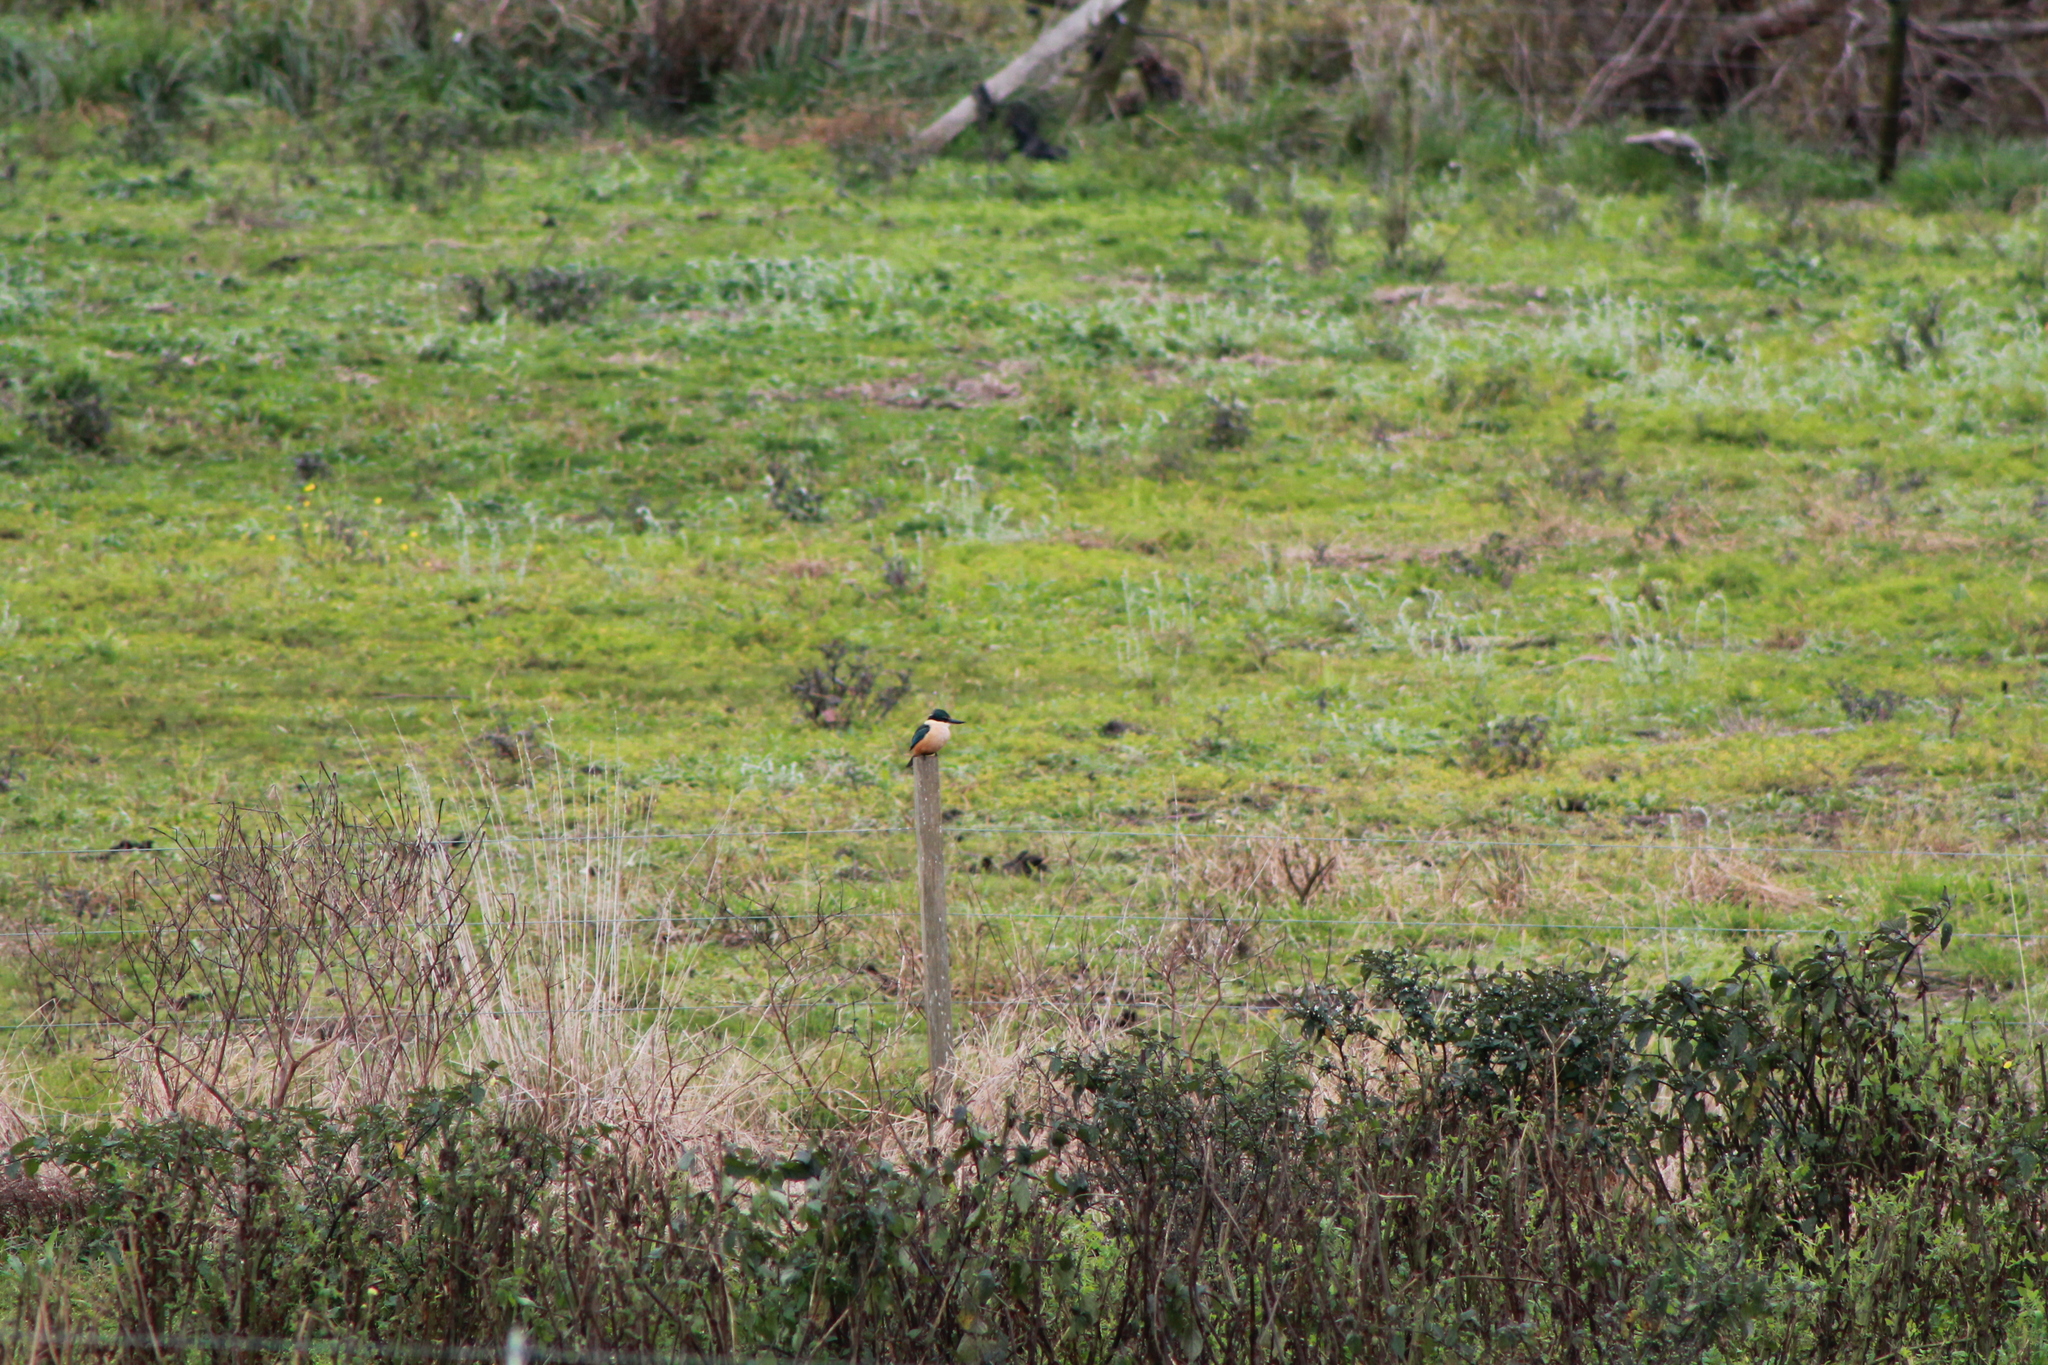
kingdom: Animalia
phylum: Chordata
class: Aves
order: Coraciiformes
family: Alcedinidae
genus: Todiramphus
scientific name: Todiramphus sanctus
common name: Sacred kingfisher
